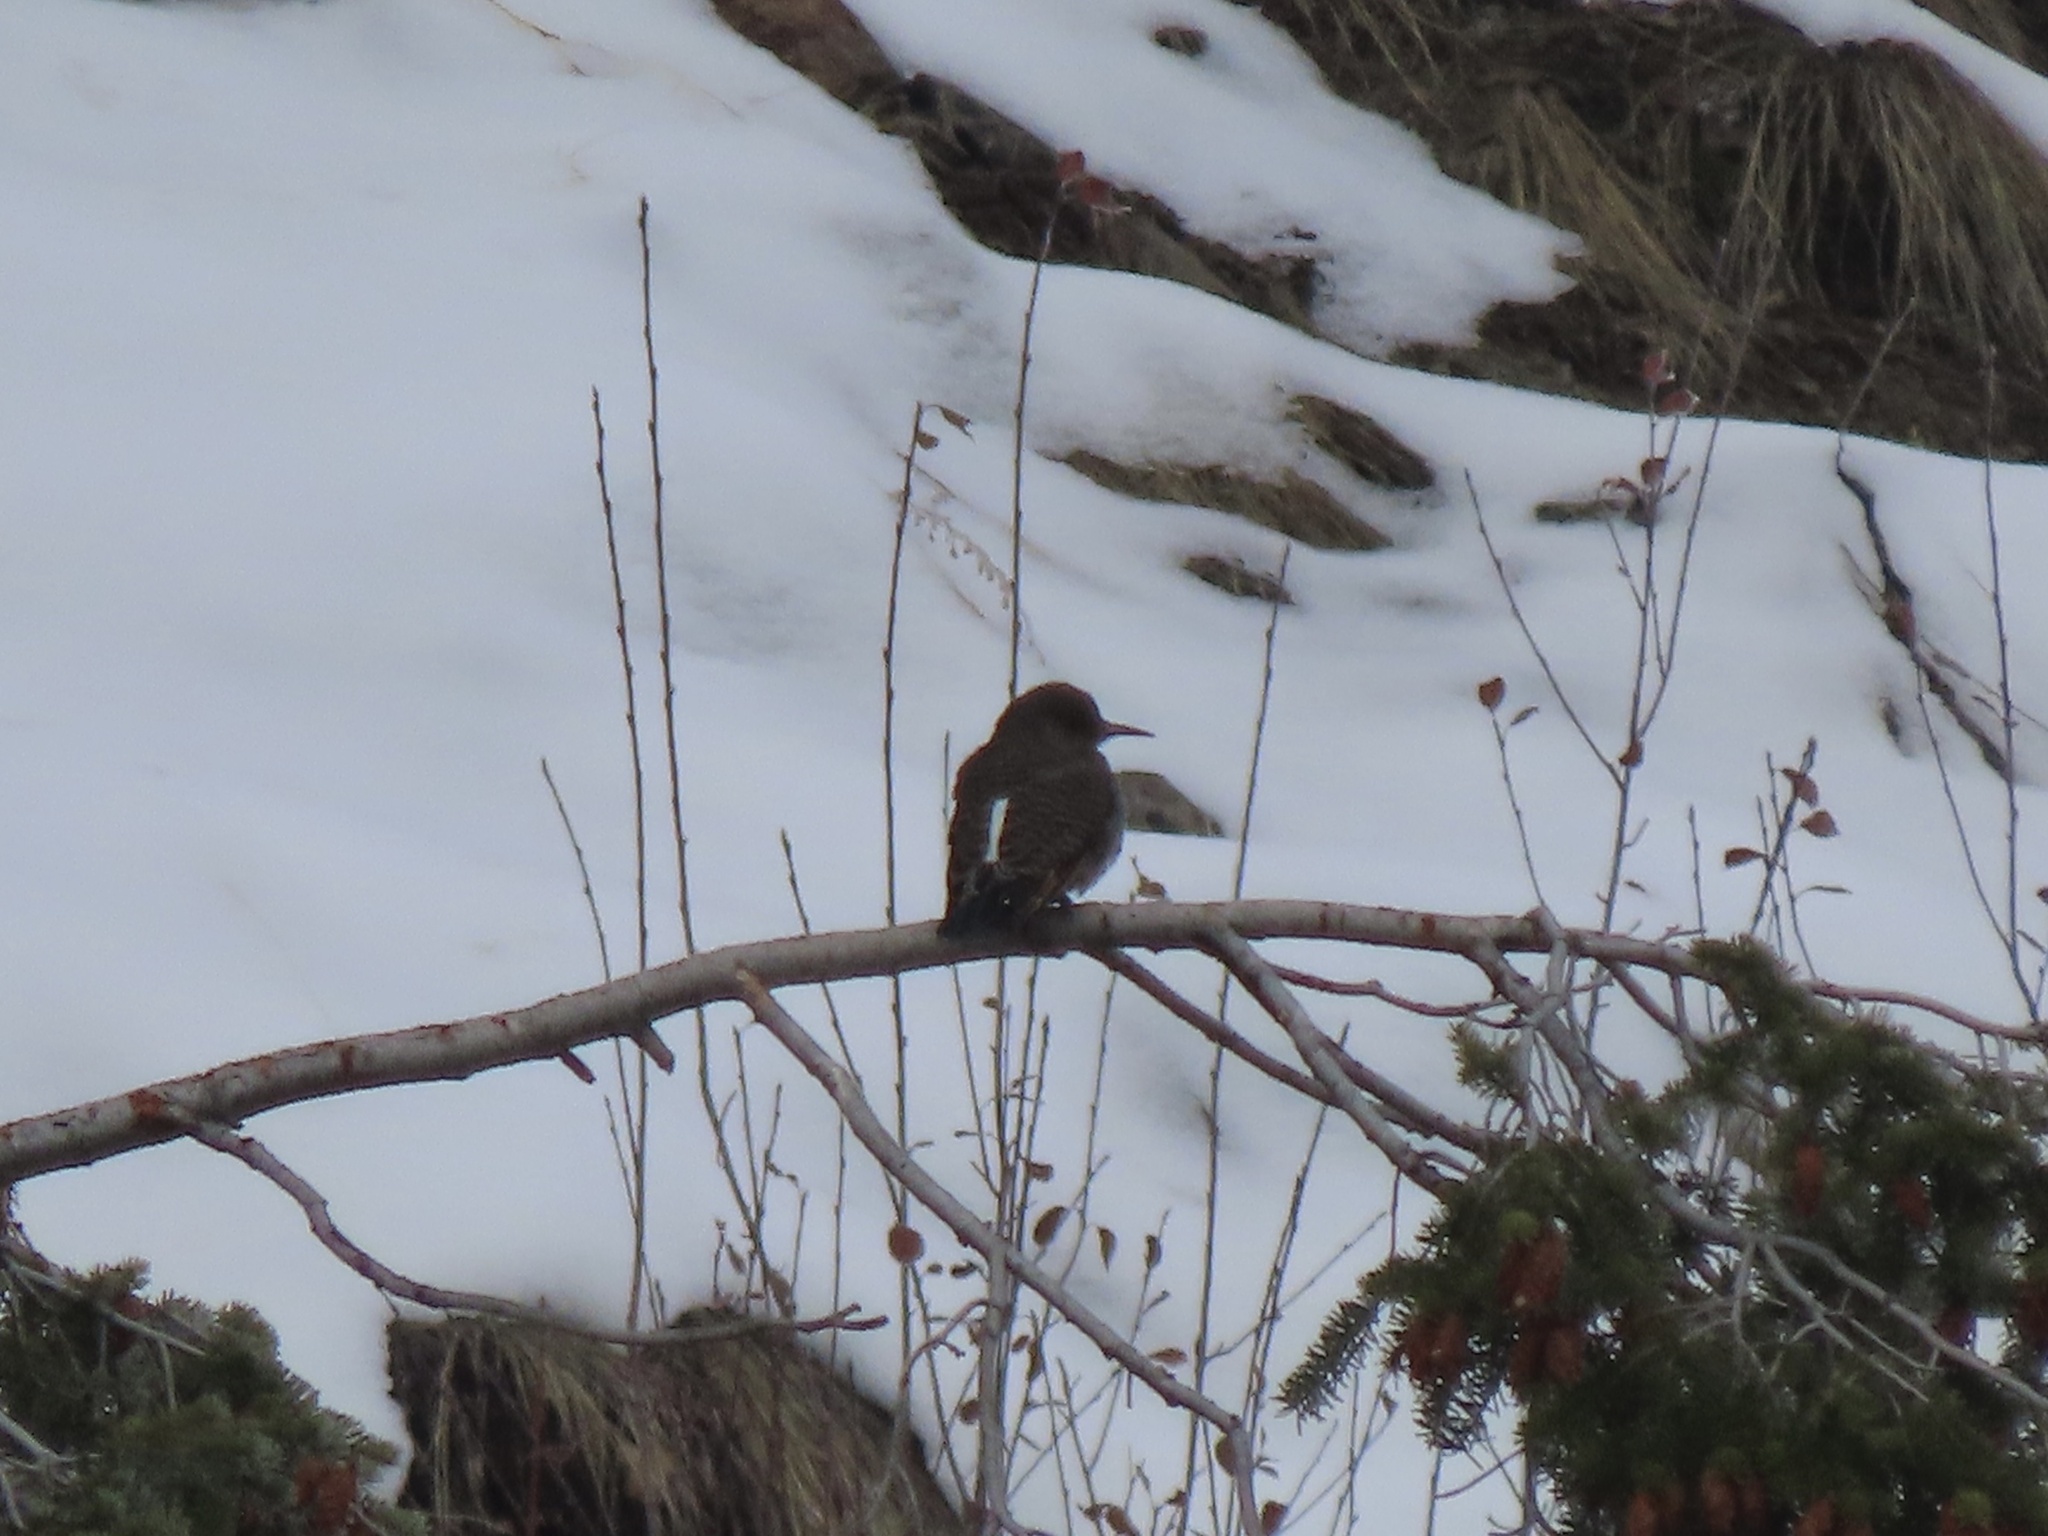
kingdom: Animalia
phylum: Chordata
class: Aves
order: Piciformes
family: Picidae
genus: Colaptes
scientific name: Colaptes auratus
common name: Northern flicker
